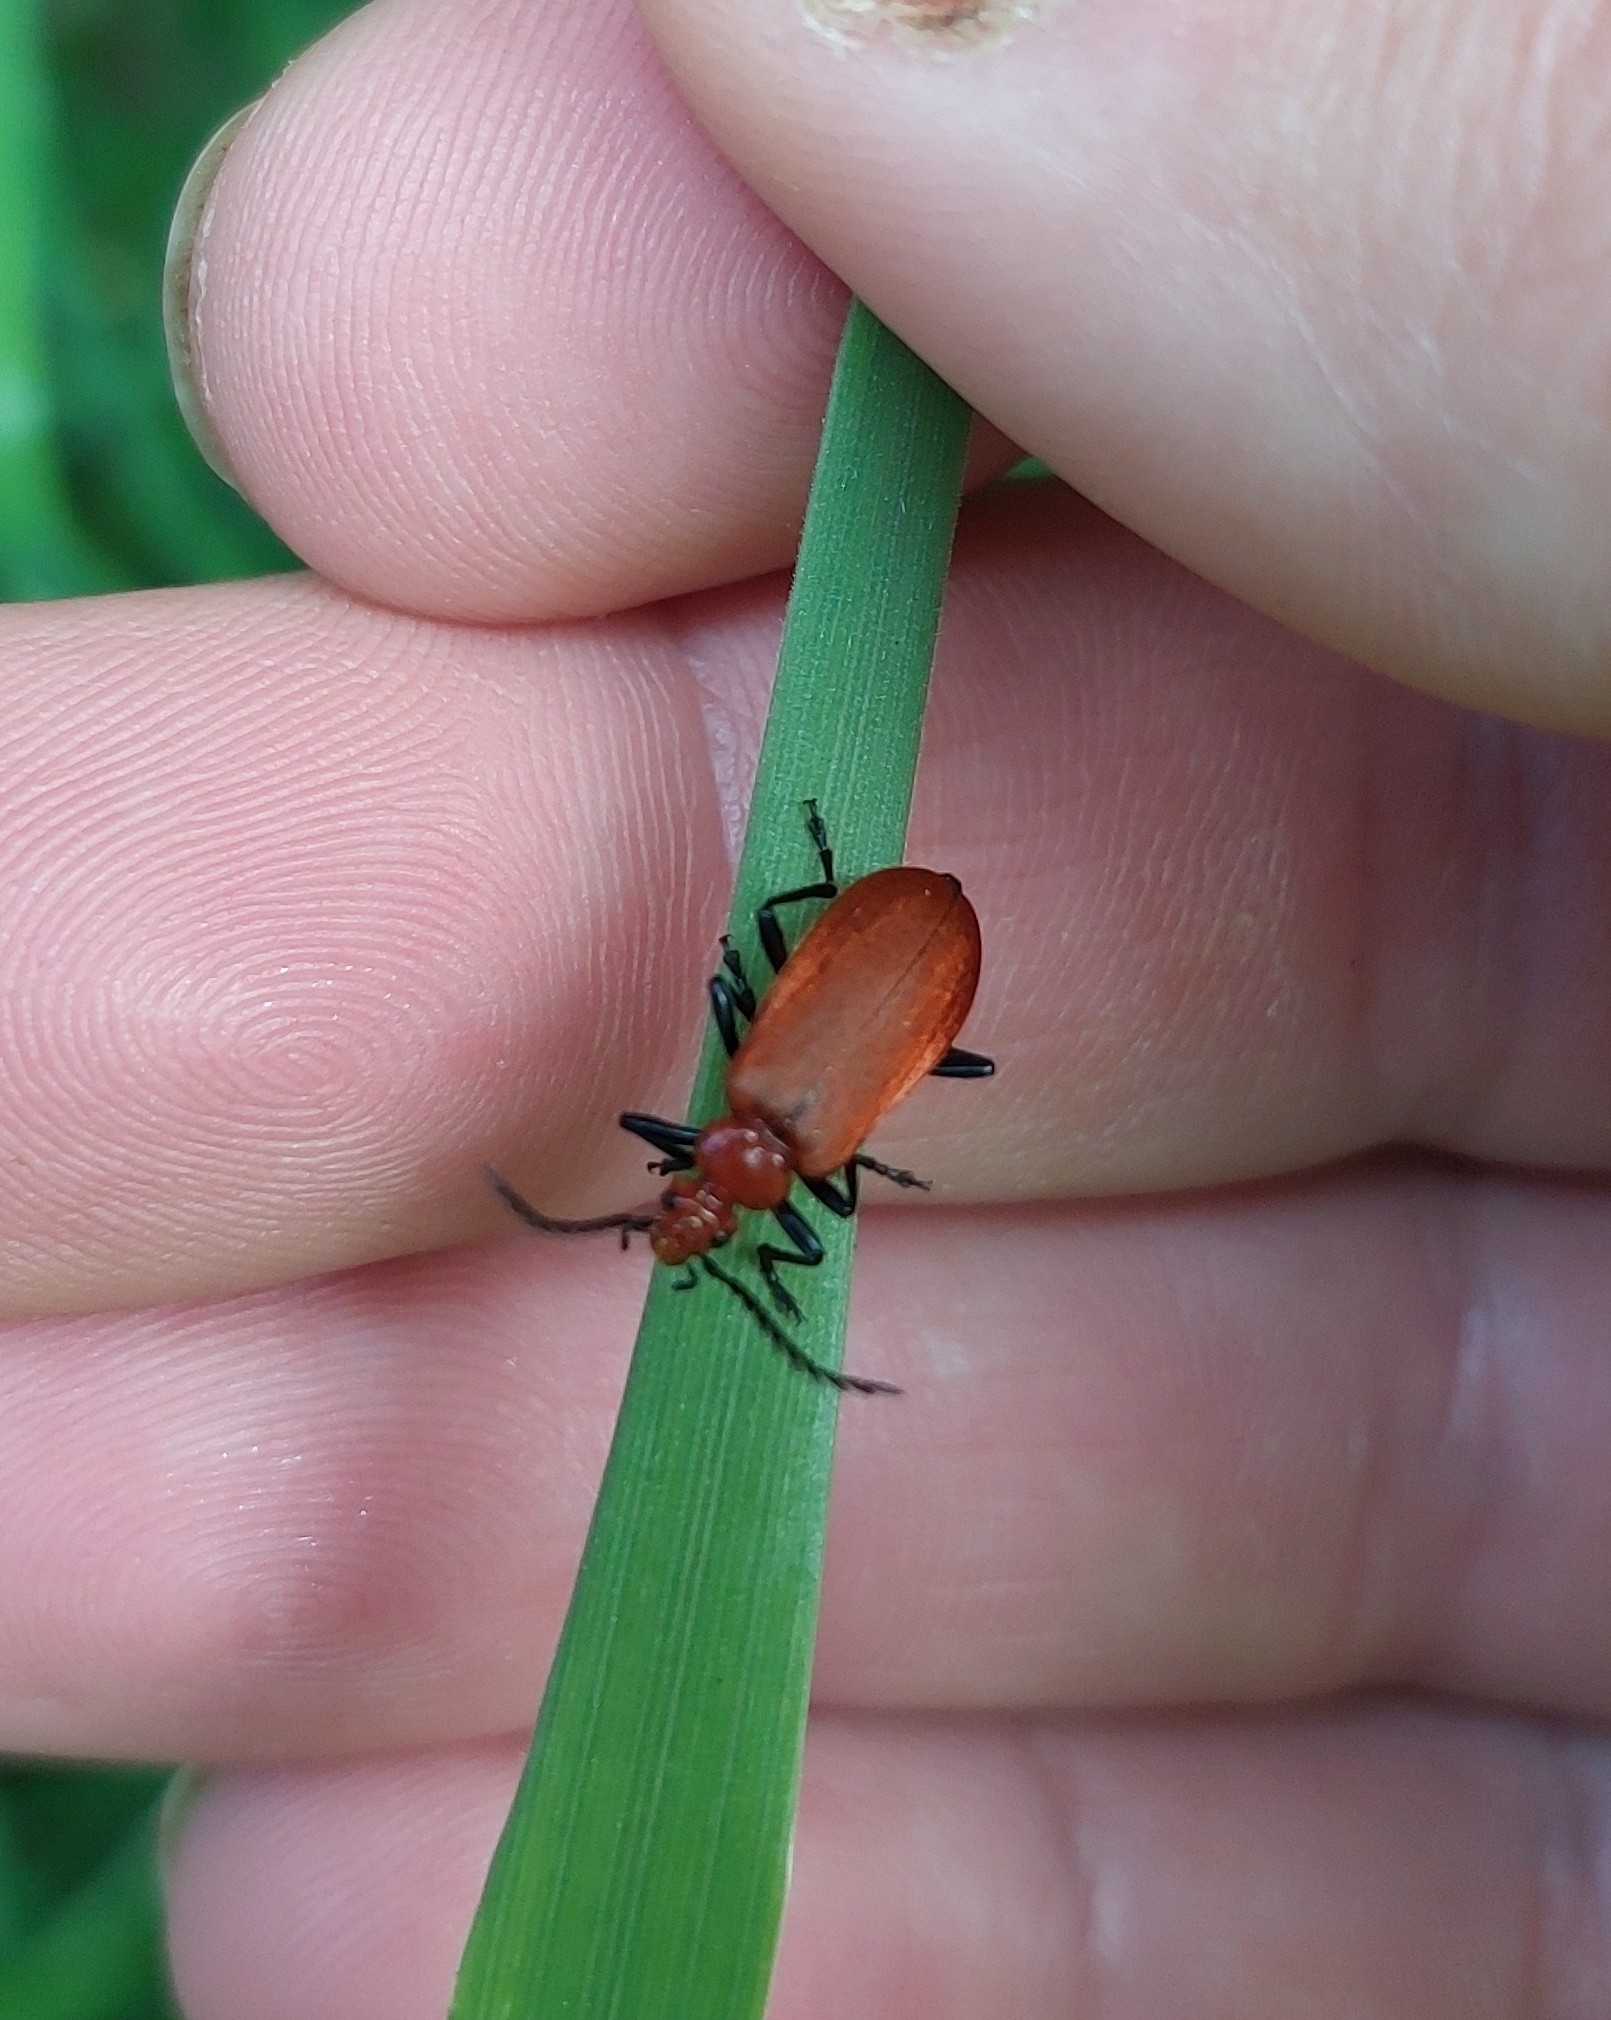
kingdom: Animalia
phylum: Arthropoda
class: Insecta
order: Coleoptera
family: Pyrochroidae
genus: Pyrochroa
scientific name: Pyrochroa serraticornis
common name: Red-headed cardinal beetle
